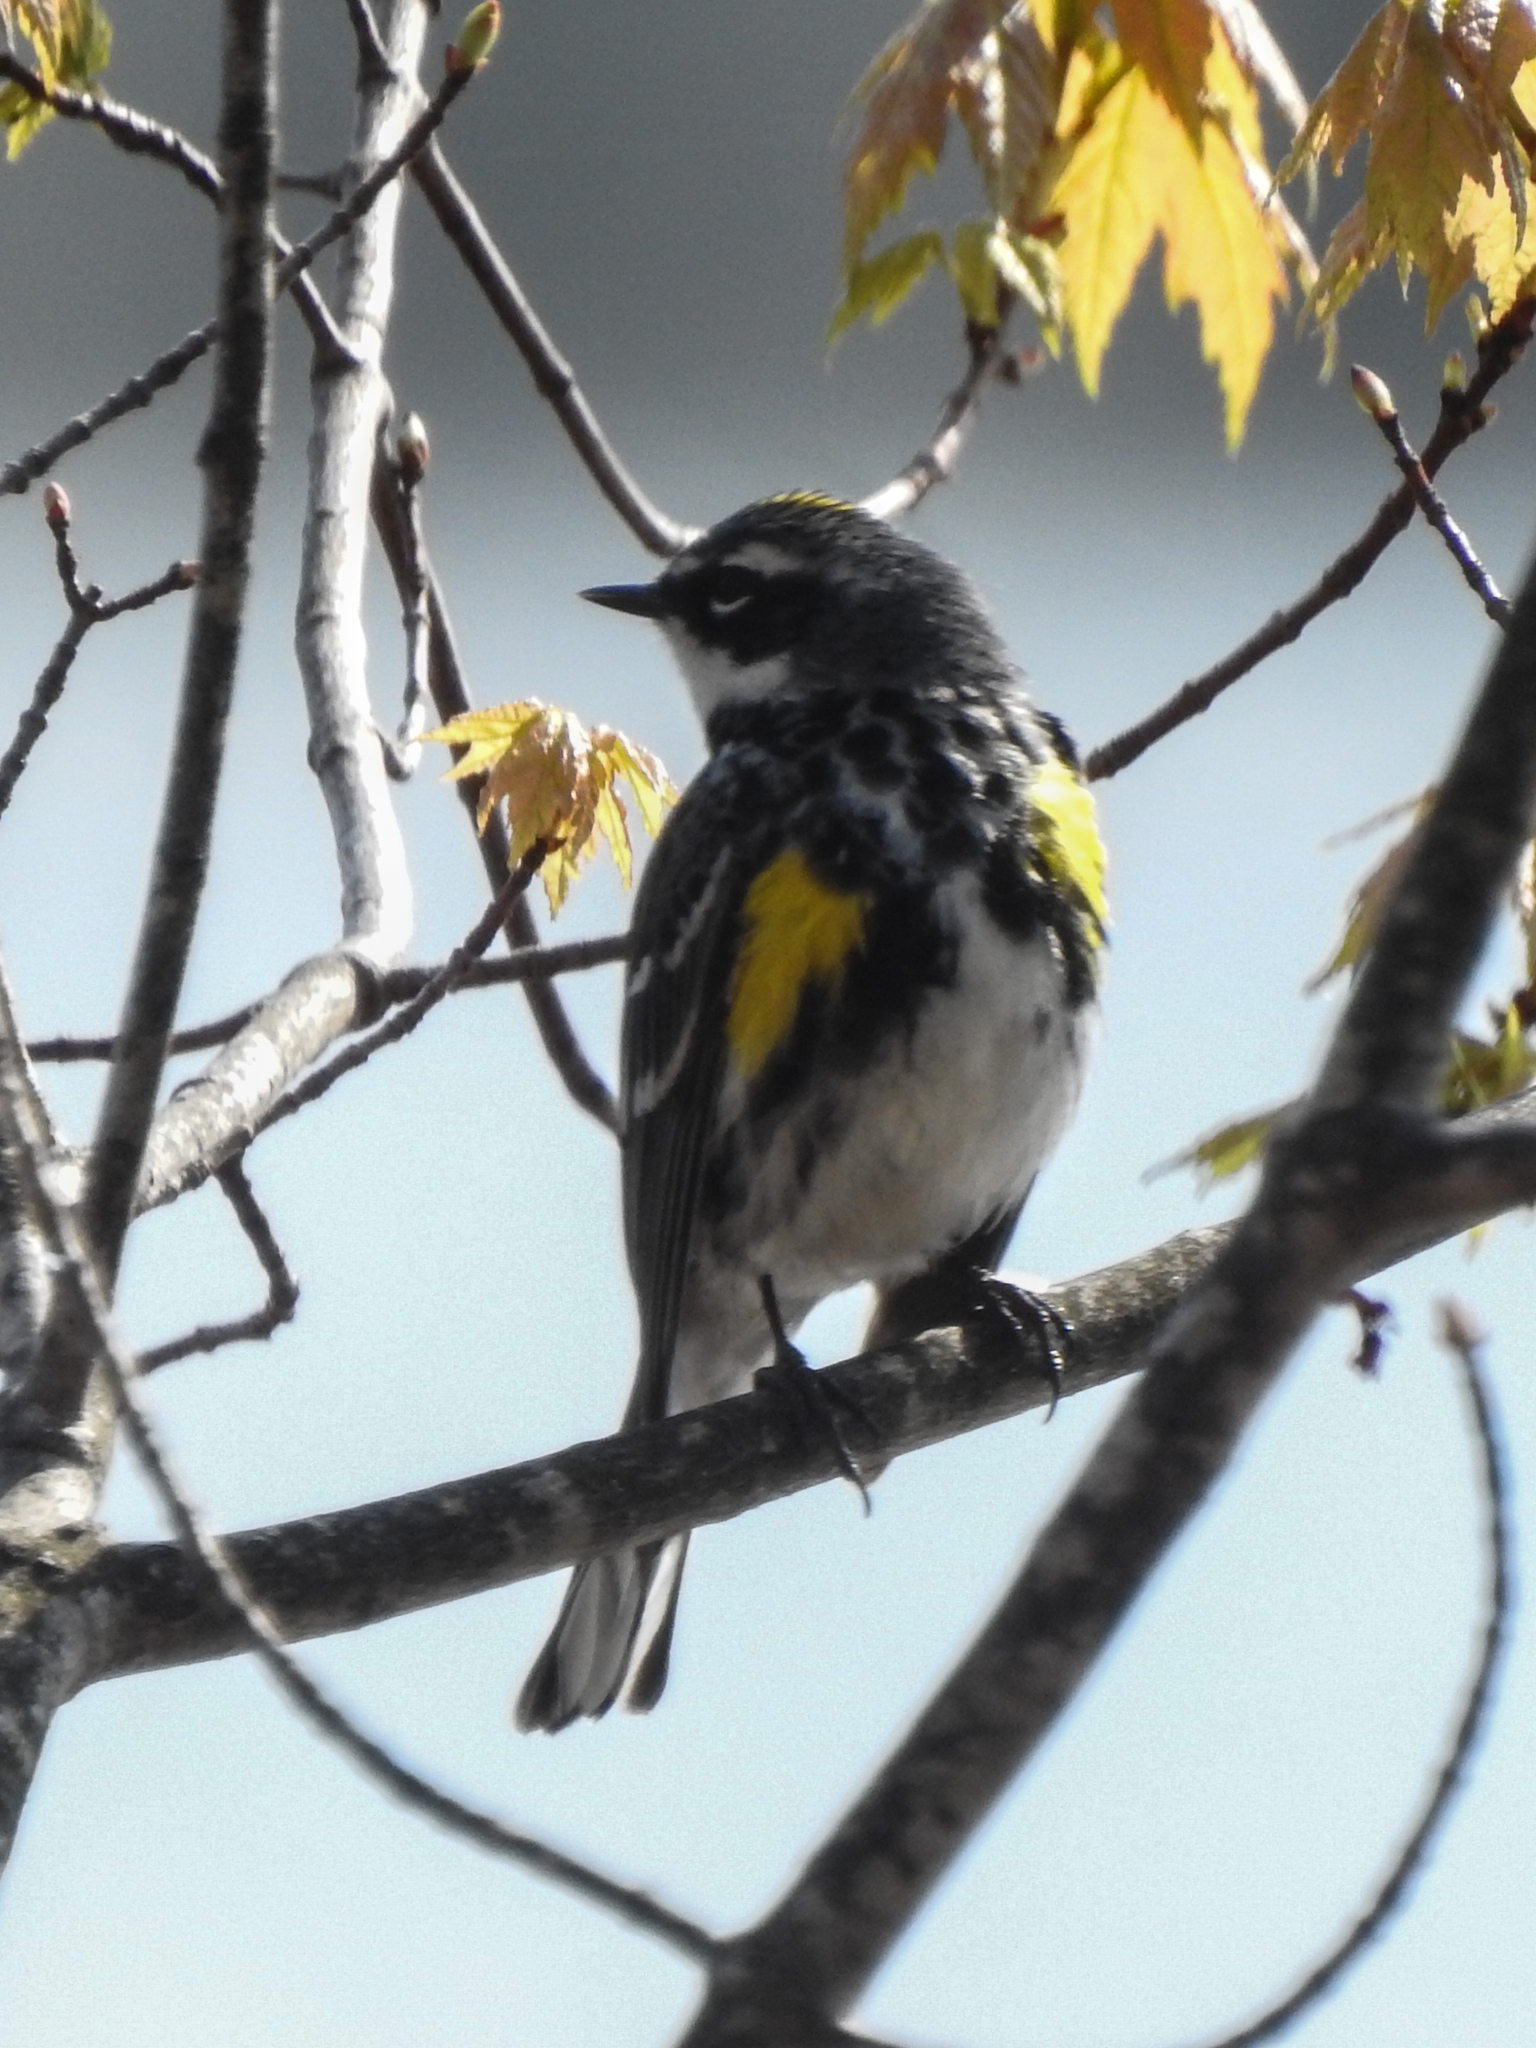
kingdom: Animalia
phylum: Chordata
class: Aves
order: Passeriformes
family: Parulidae
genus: Setophaga
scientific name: Setophaga coronata
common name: Myrtle warbler
